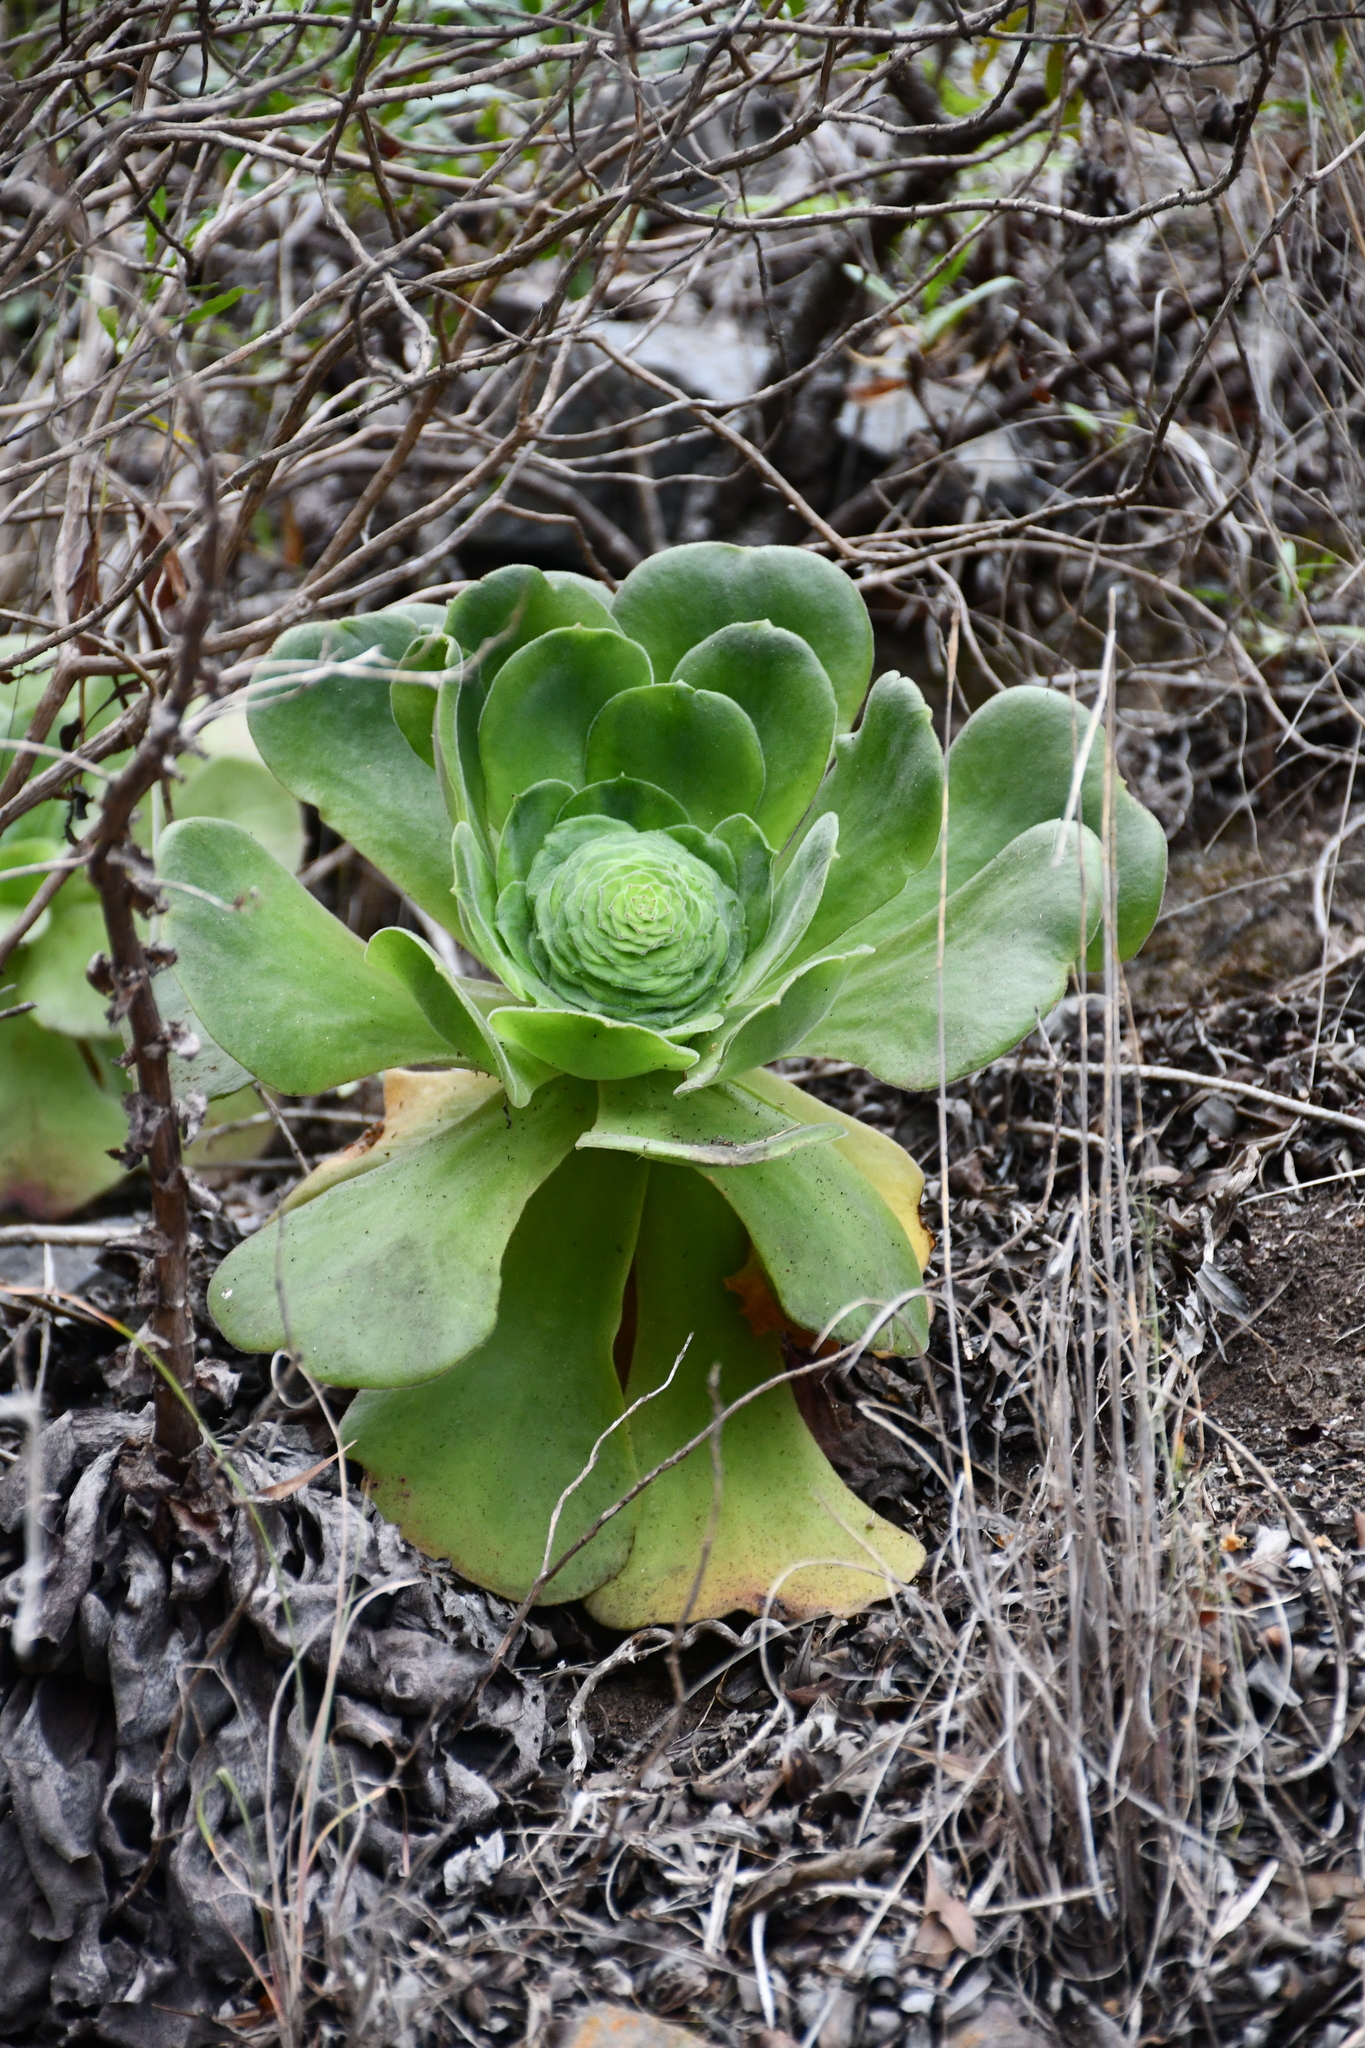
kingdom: Plantae
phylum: Tracheophyta
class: Magnoliopsida
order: Saxifragales
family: Crassulaceae
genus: Aeonium
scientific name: Aeonium canariense
